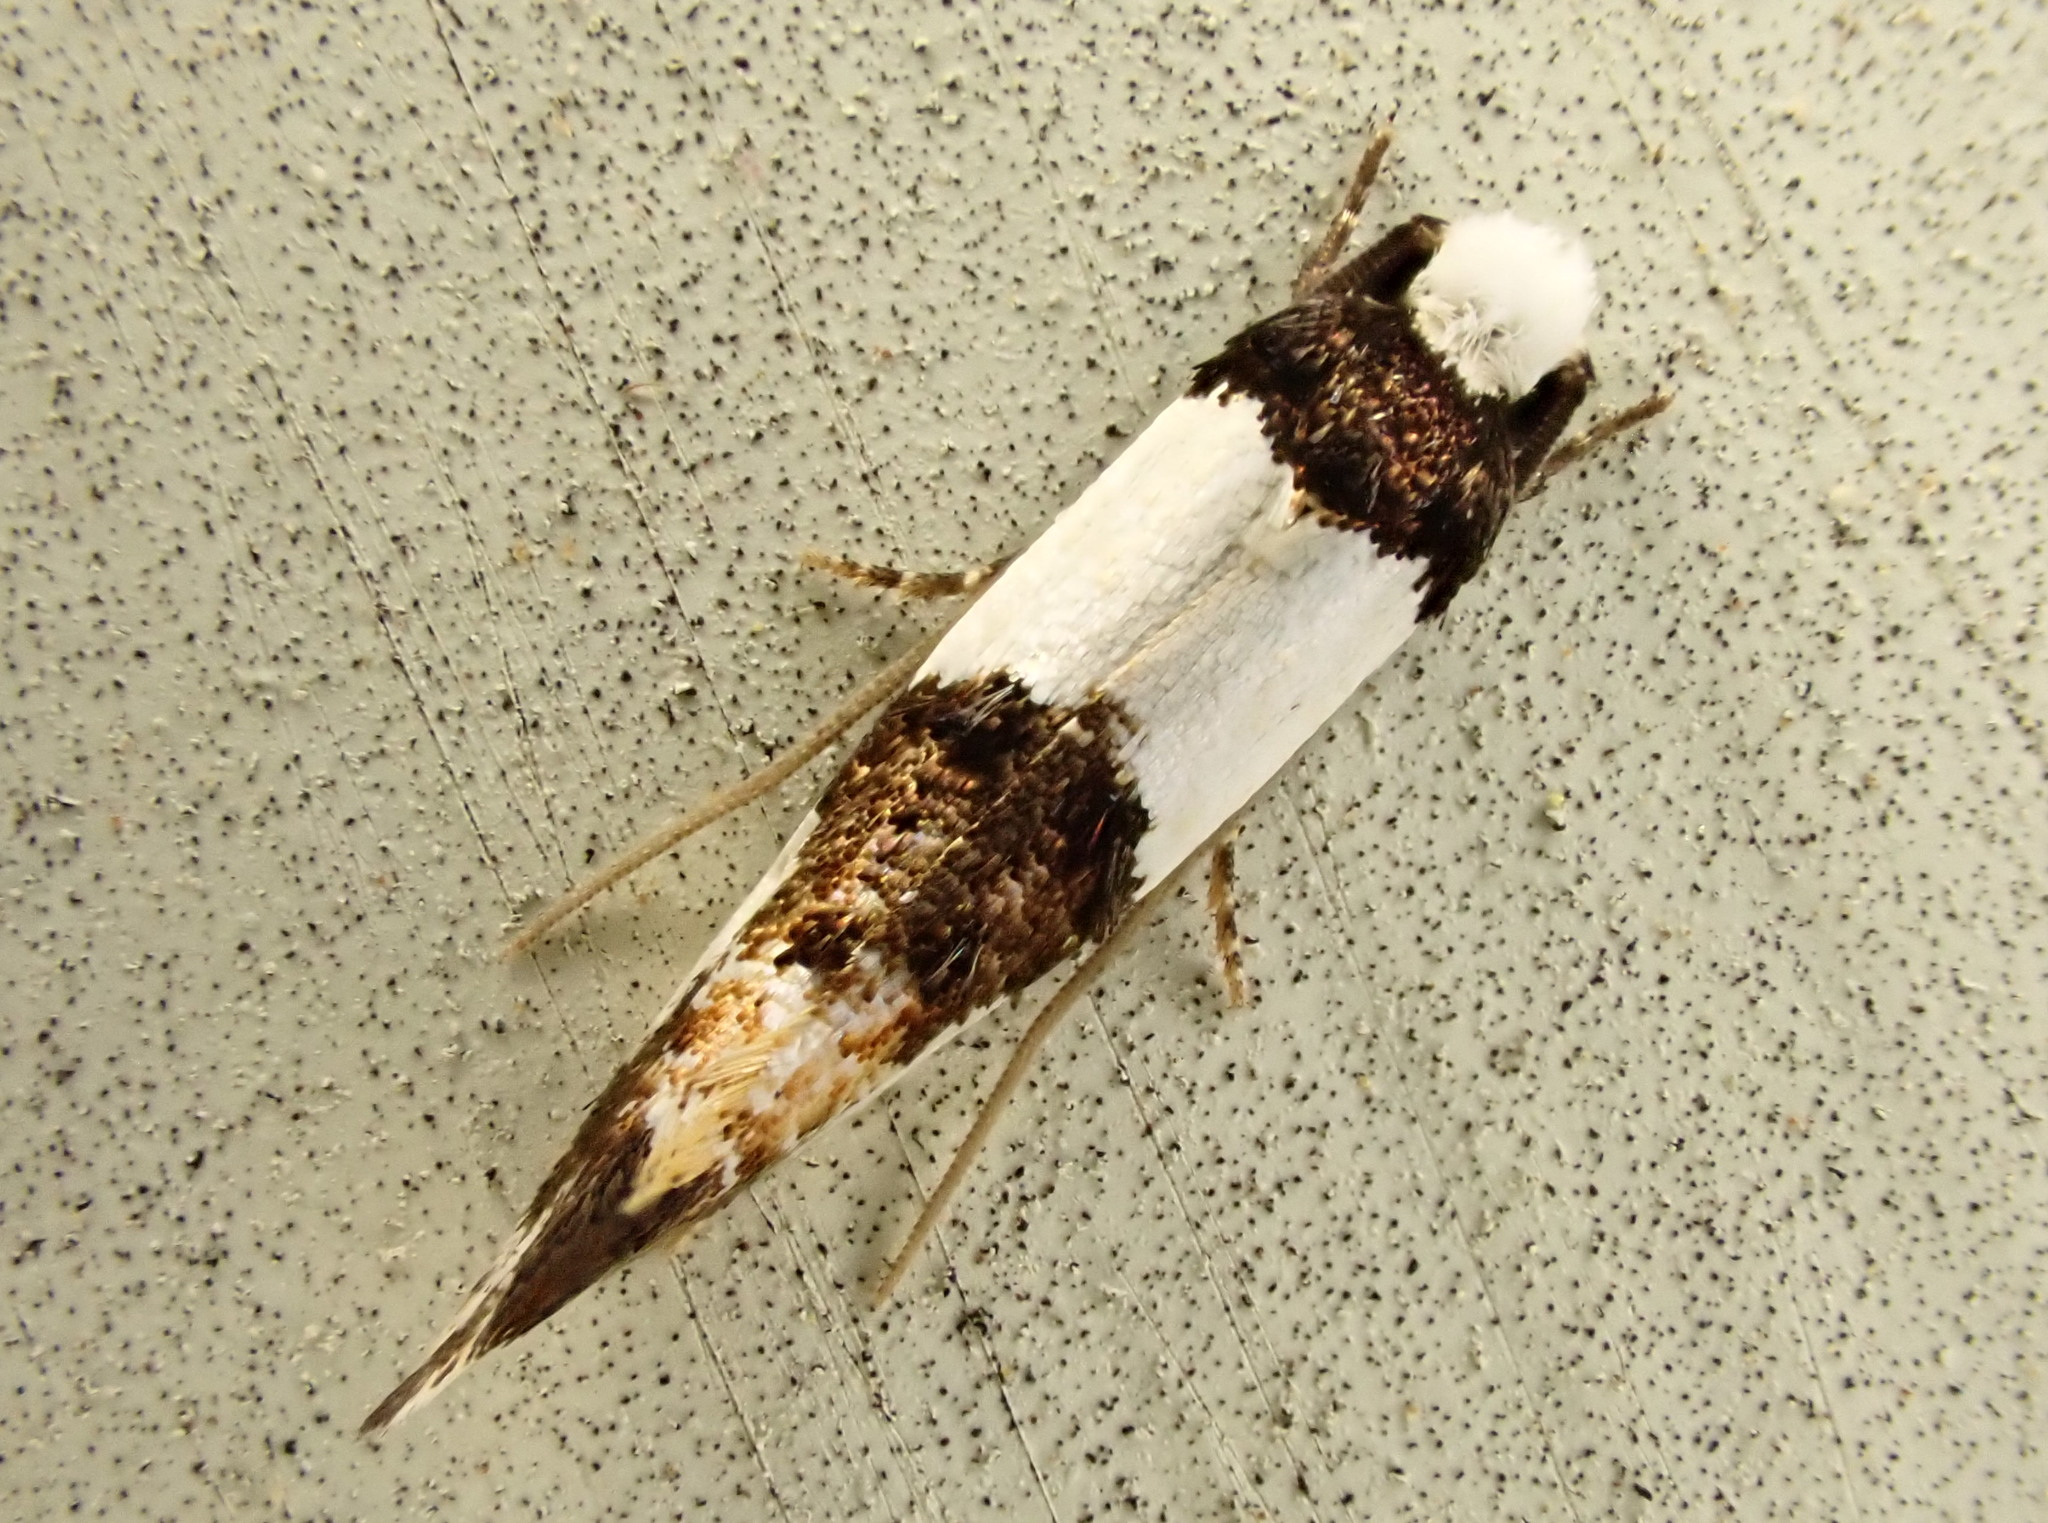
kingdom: Animalia
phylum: Arthropoda
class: Insecta
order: Lepidoptera
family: Tineidae
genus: Monopis
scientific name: Monopis icterogastra
